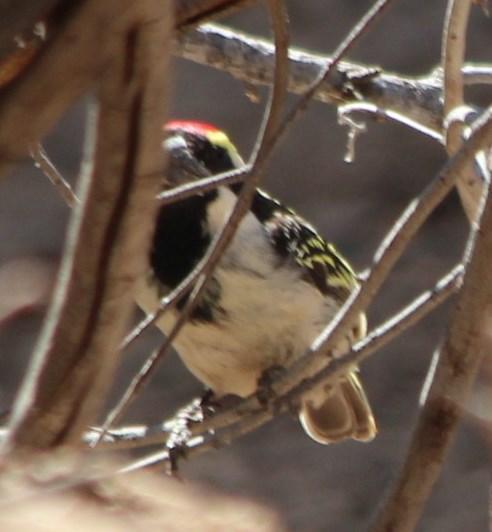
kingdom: Animalia
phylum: Chordata
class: Aves
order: Piciformes
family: Lybiidae
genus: Tricholaema
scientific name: Tricholaema leucomelas
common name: Acacia pied barbet
